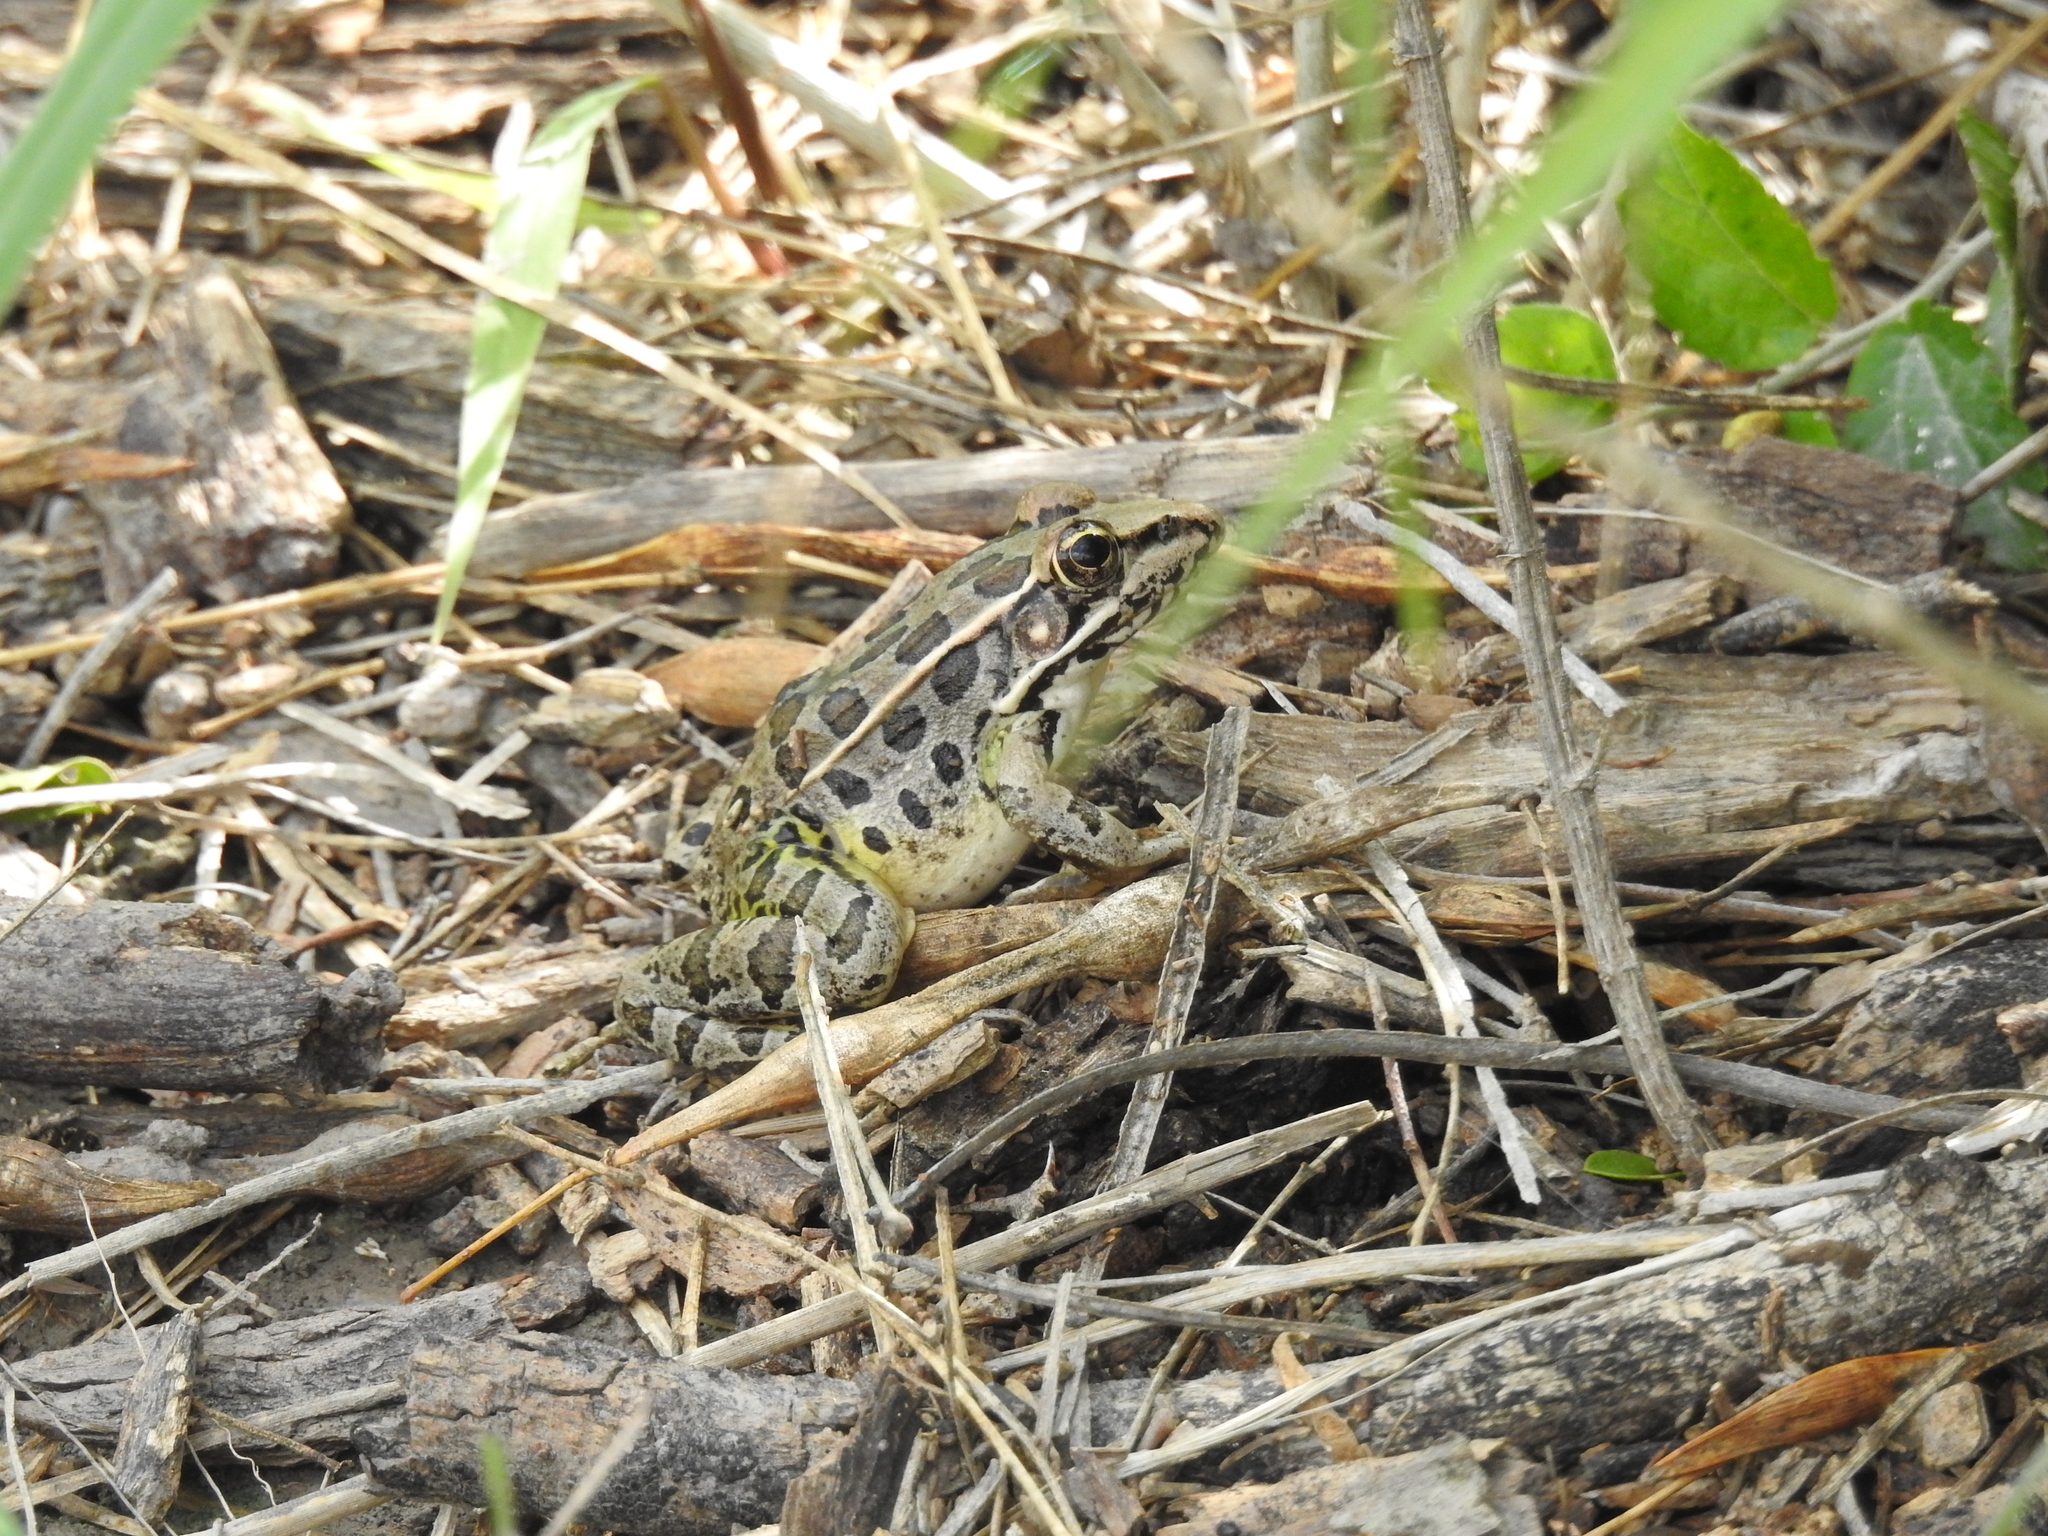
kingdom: Animalia
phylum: Chordata
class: Amphibia
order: Anura
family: Ranidae
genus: Lithobates
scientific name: Lithobates berlandieri
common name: Rio grande leopard frog
